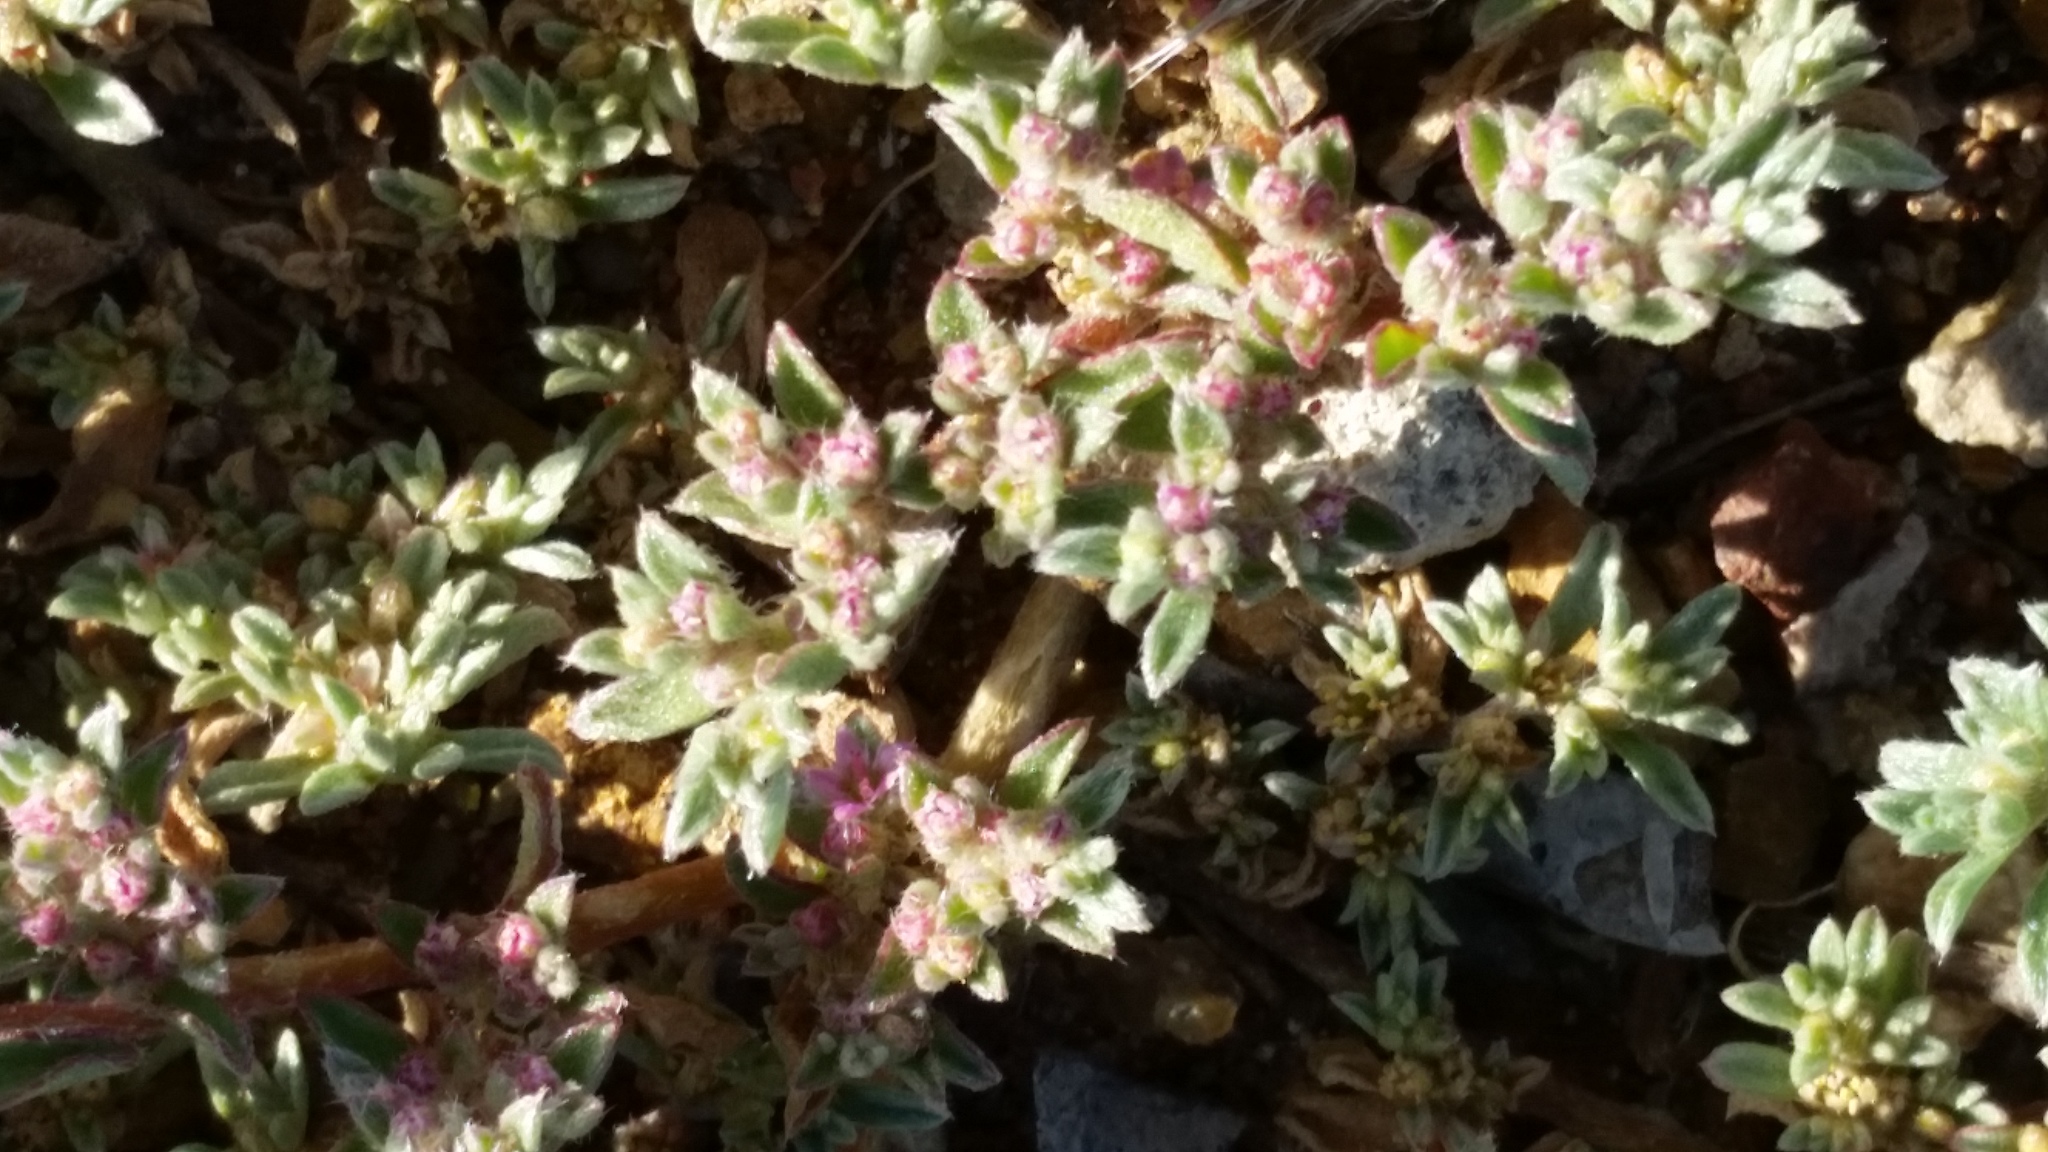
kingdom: Plantae
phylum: Tracheophyta
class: Magnoliopsida
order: Caryophyllales
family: Aizoaceae
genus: Aizoon
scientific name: Aizoon pubescens
